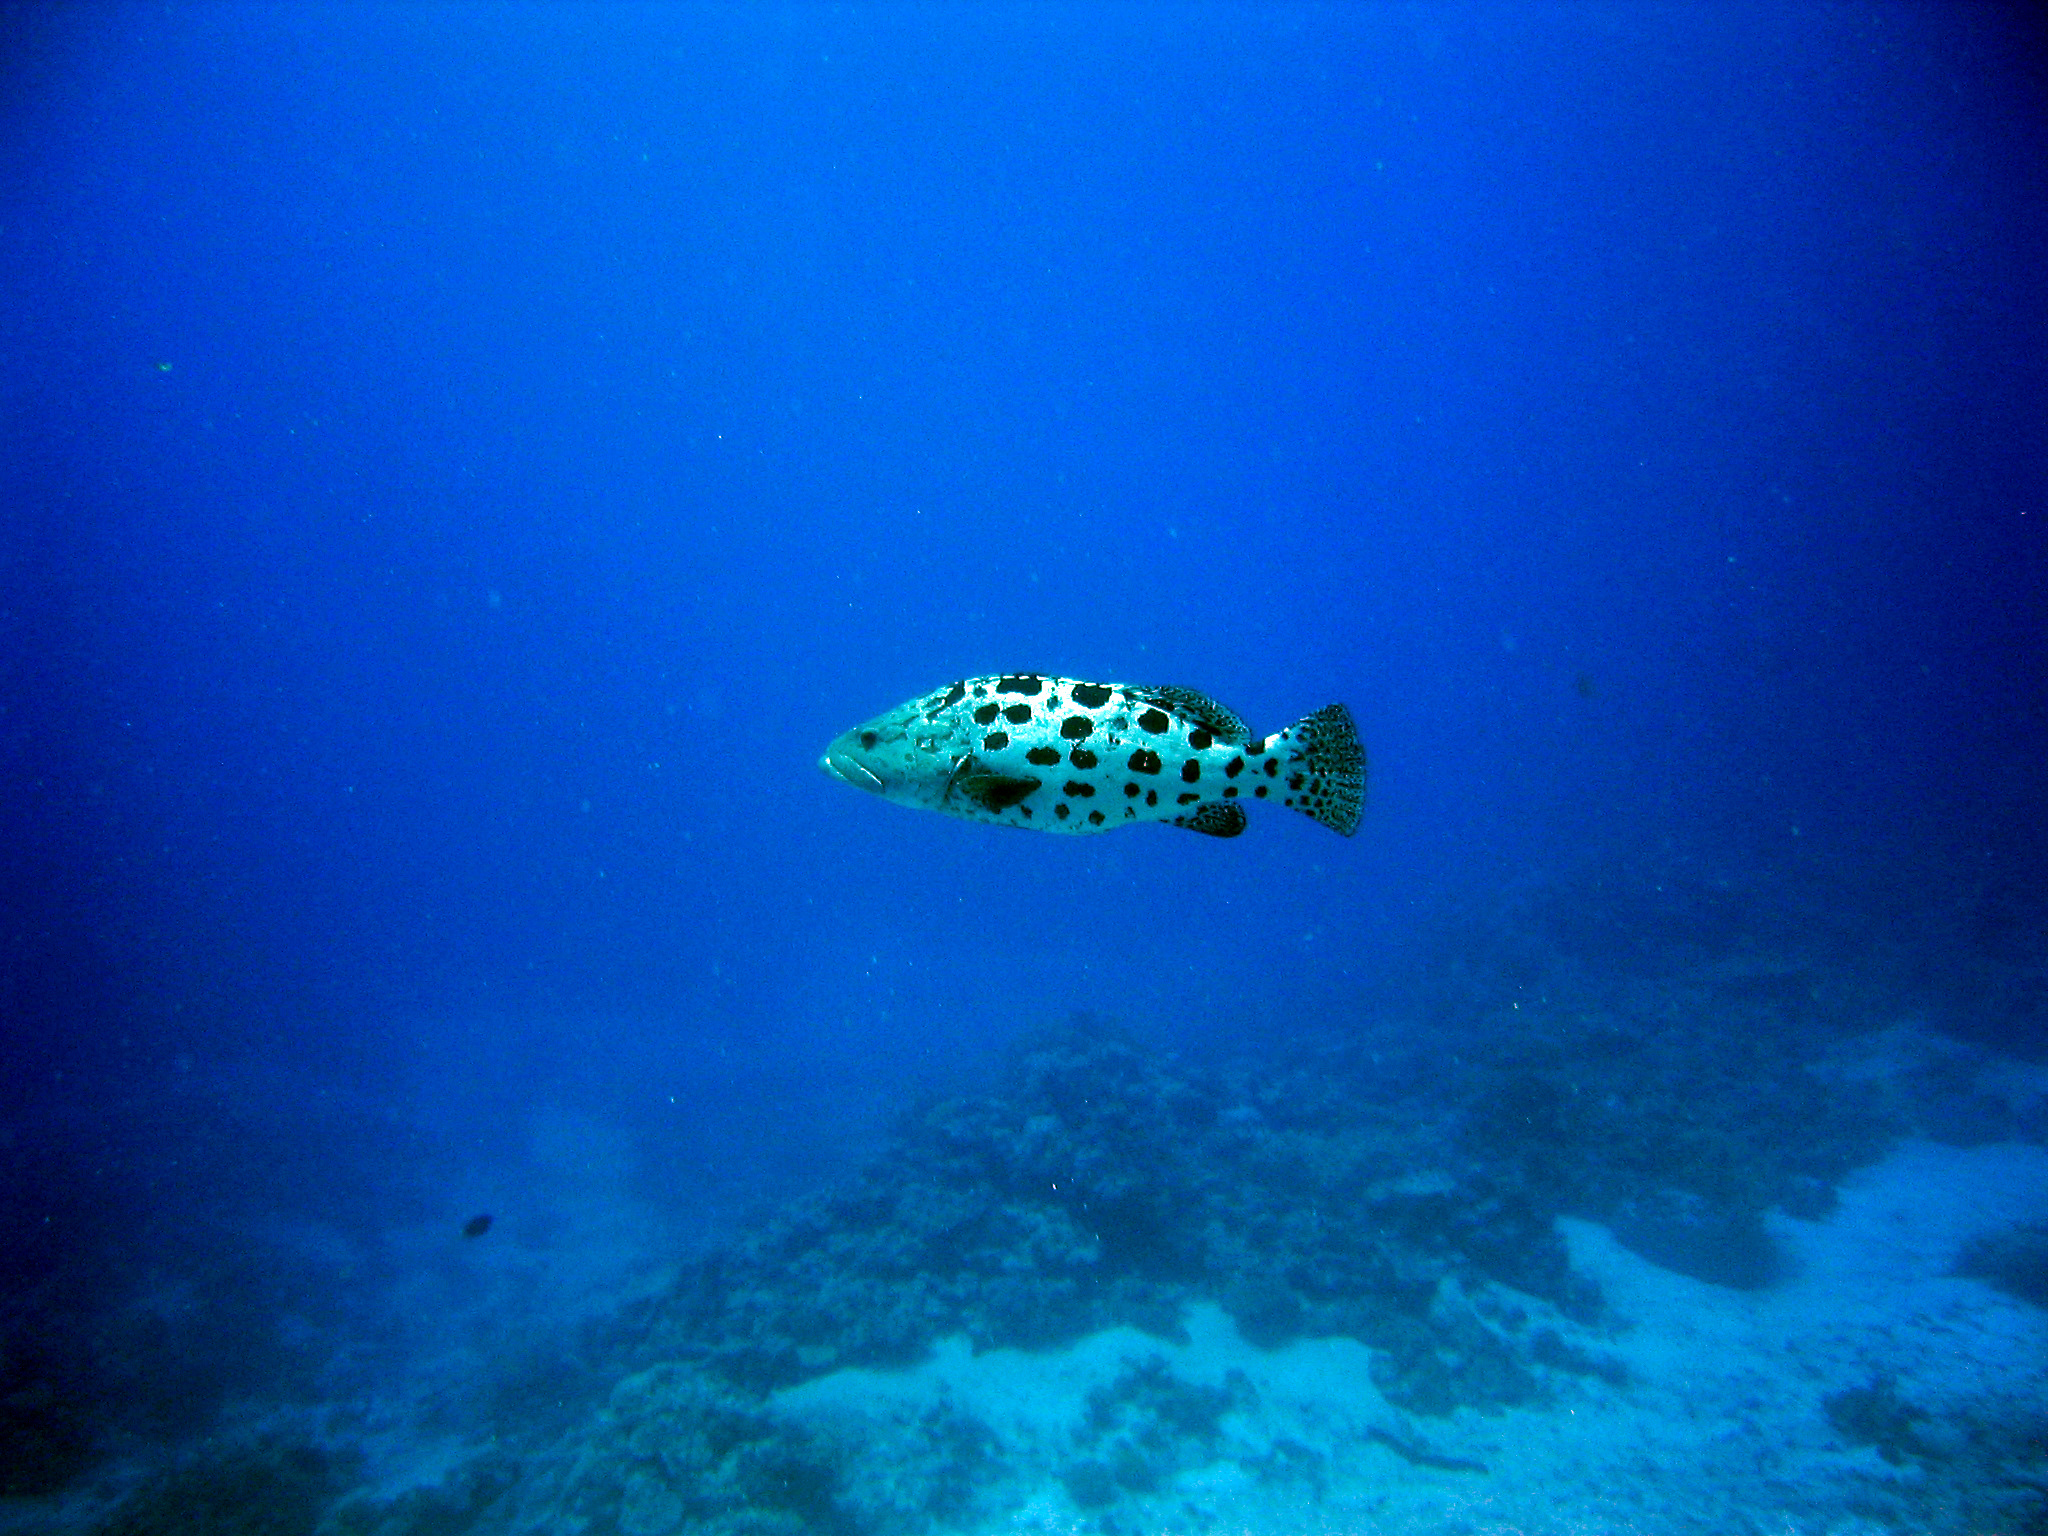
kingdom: Animalia
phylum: Chordata
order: Perciformes
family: Serranidae
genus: Epinephelus
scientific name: Epinephelus tukula
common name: Potato cod
